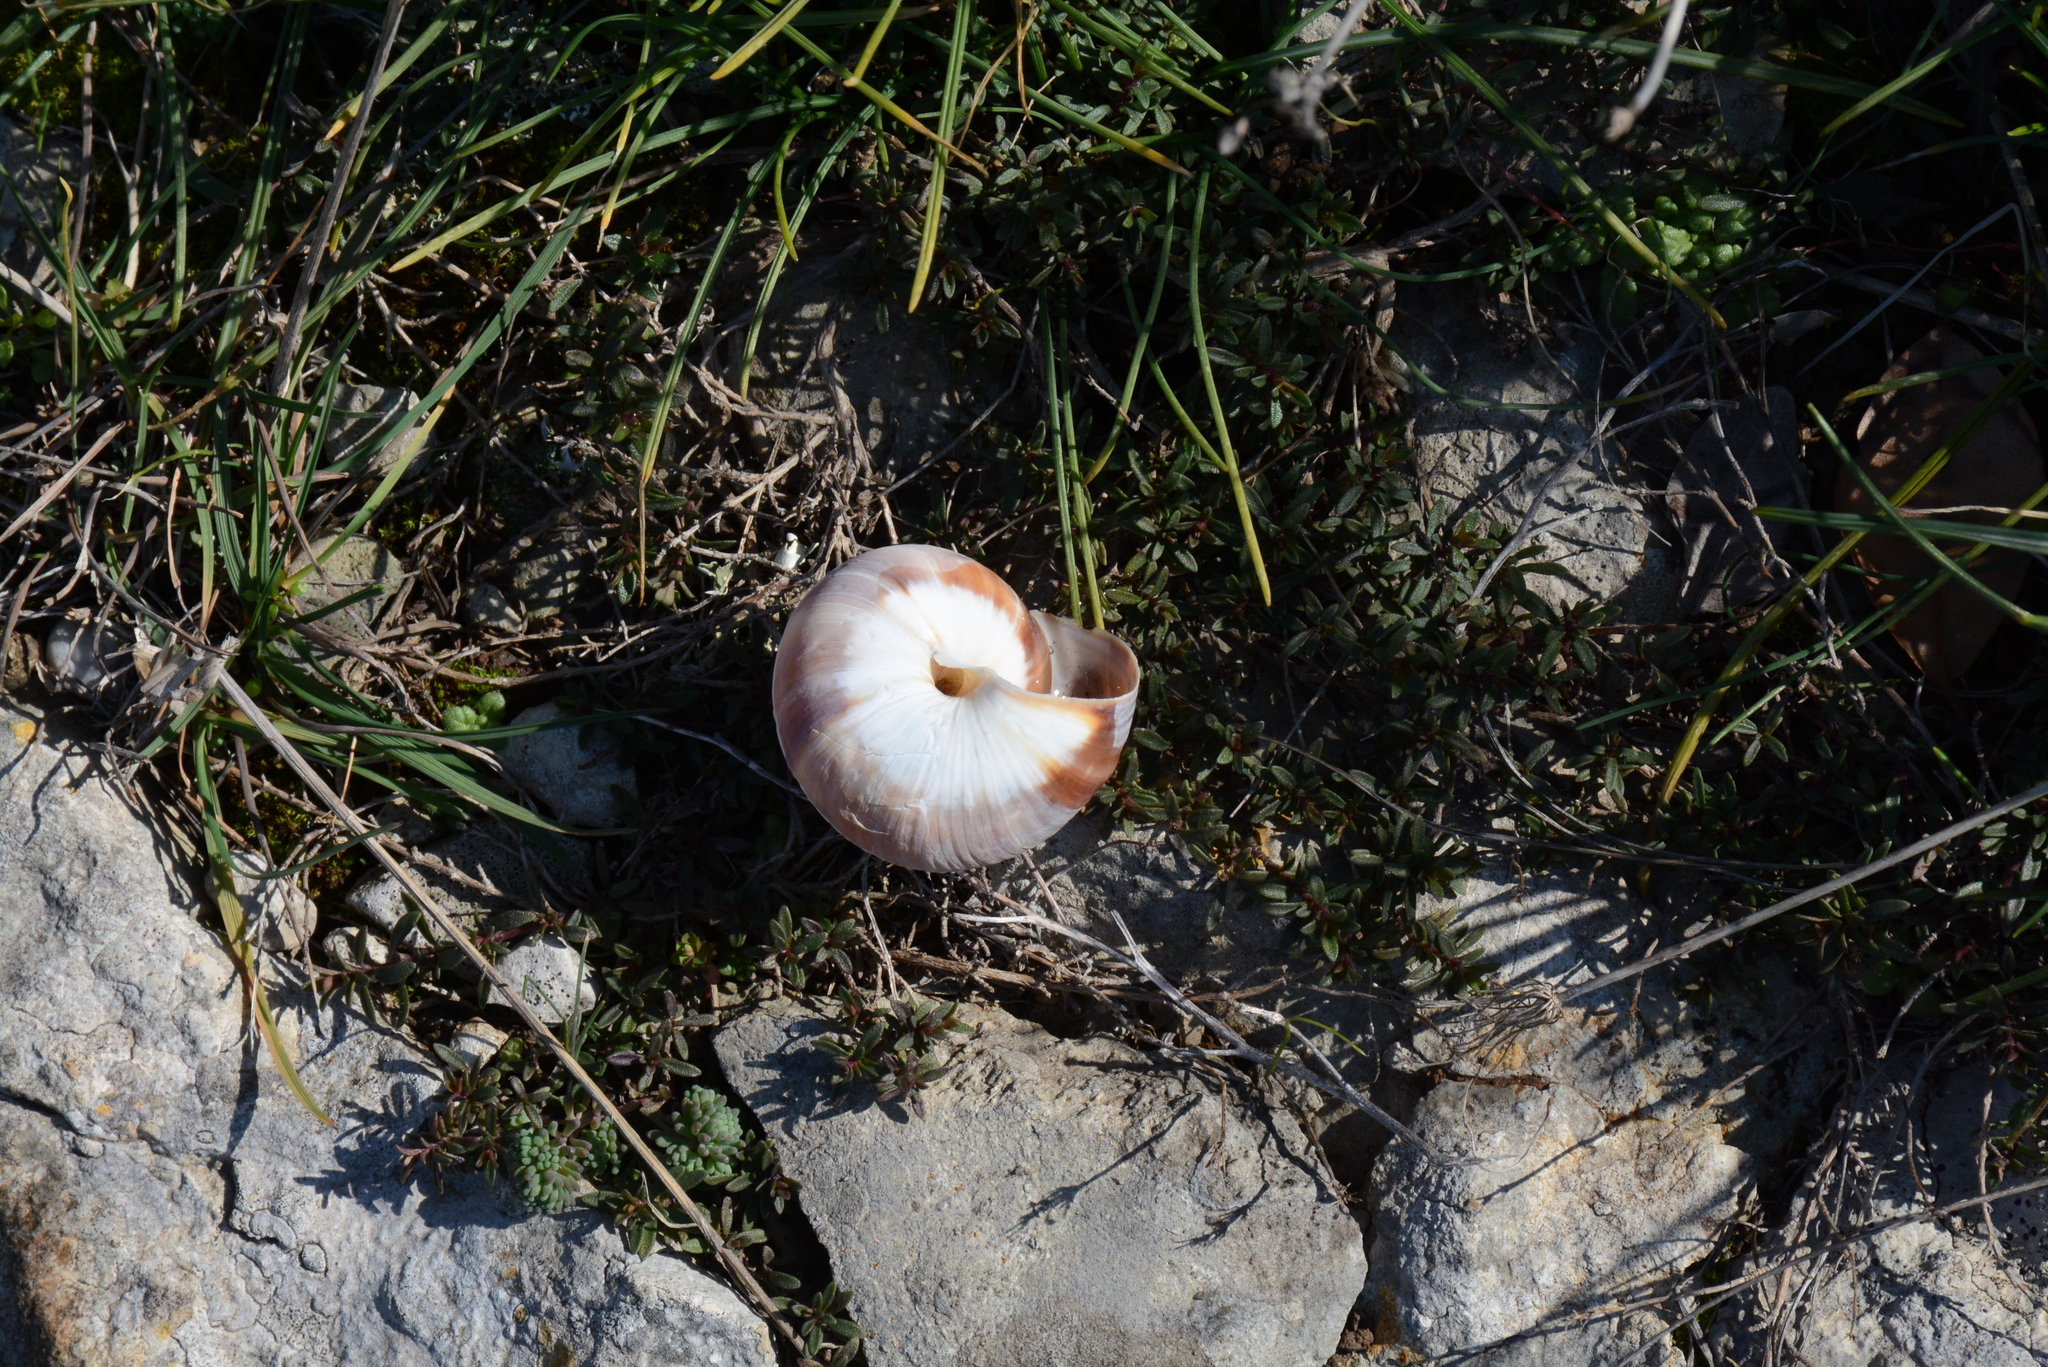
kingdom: Animalia
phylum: Mollusca
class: Gastropoda
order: Stylommatophora
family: Helicidae
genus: Helix
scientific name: Helix lucorum
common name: Turkish snail
